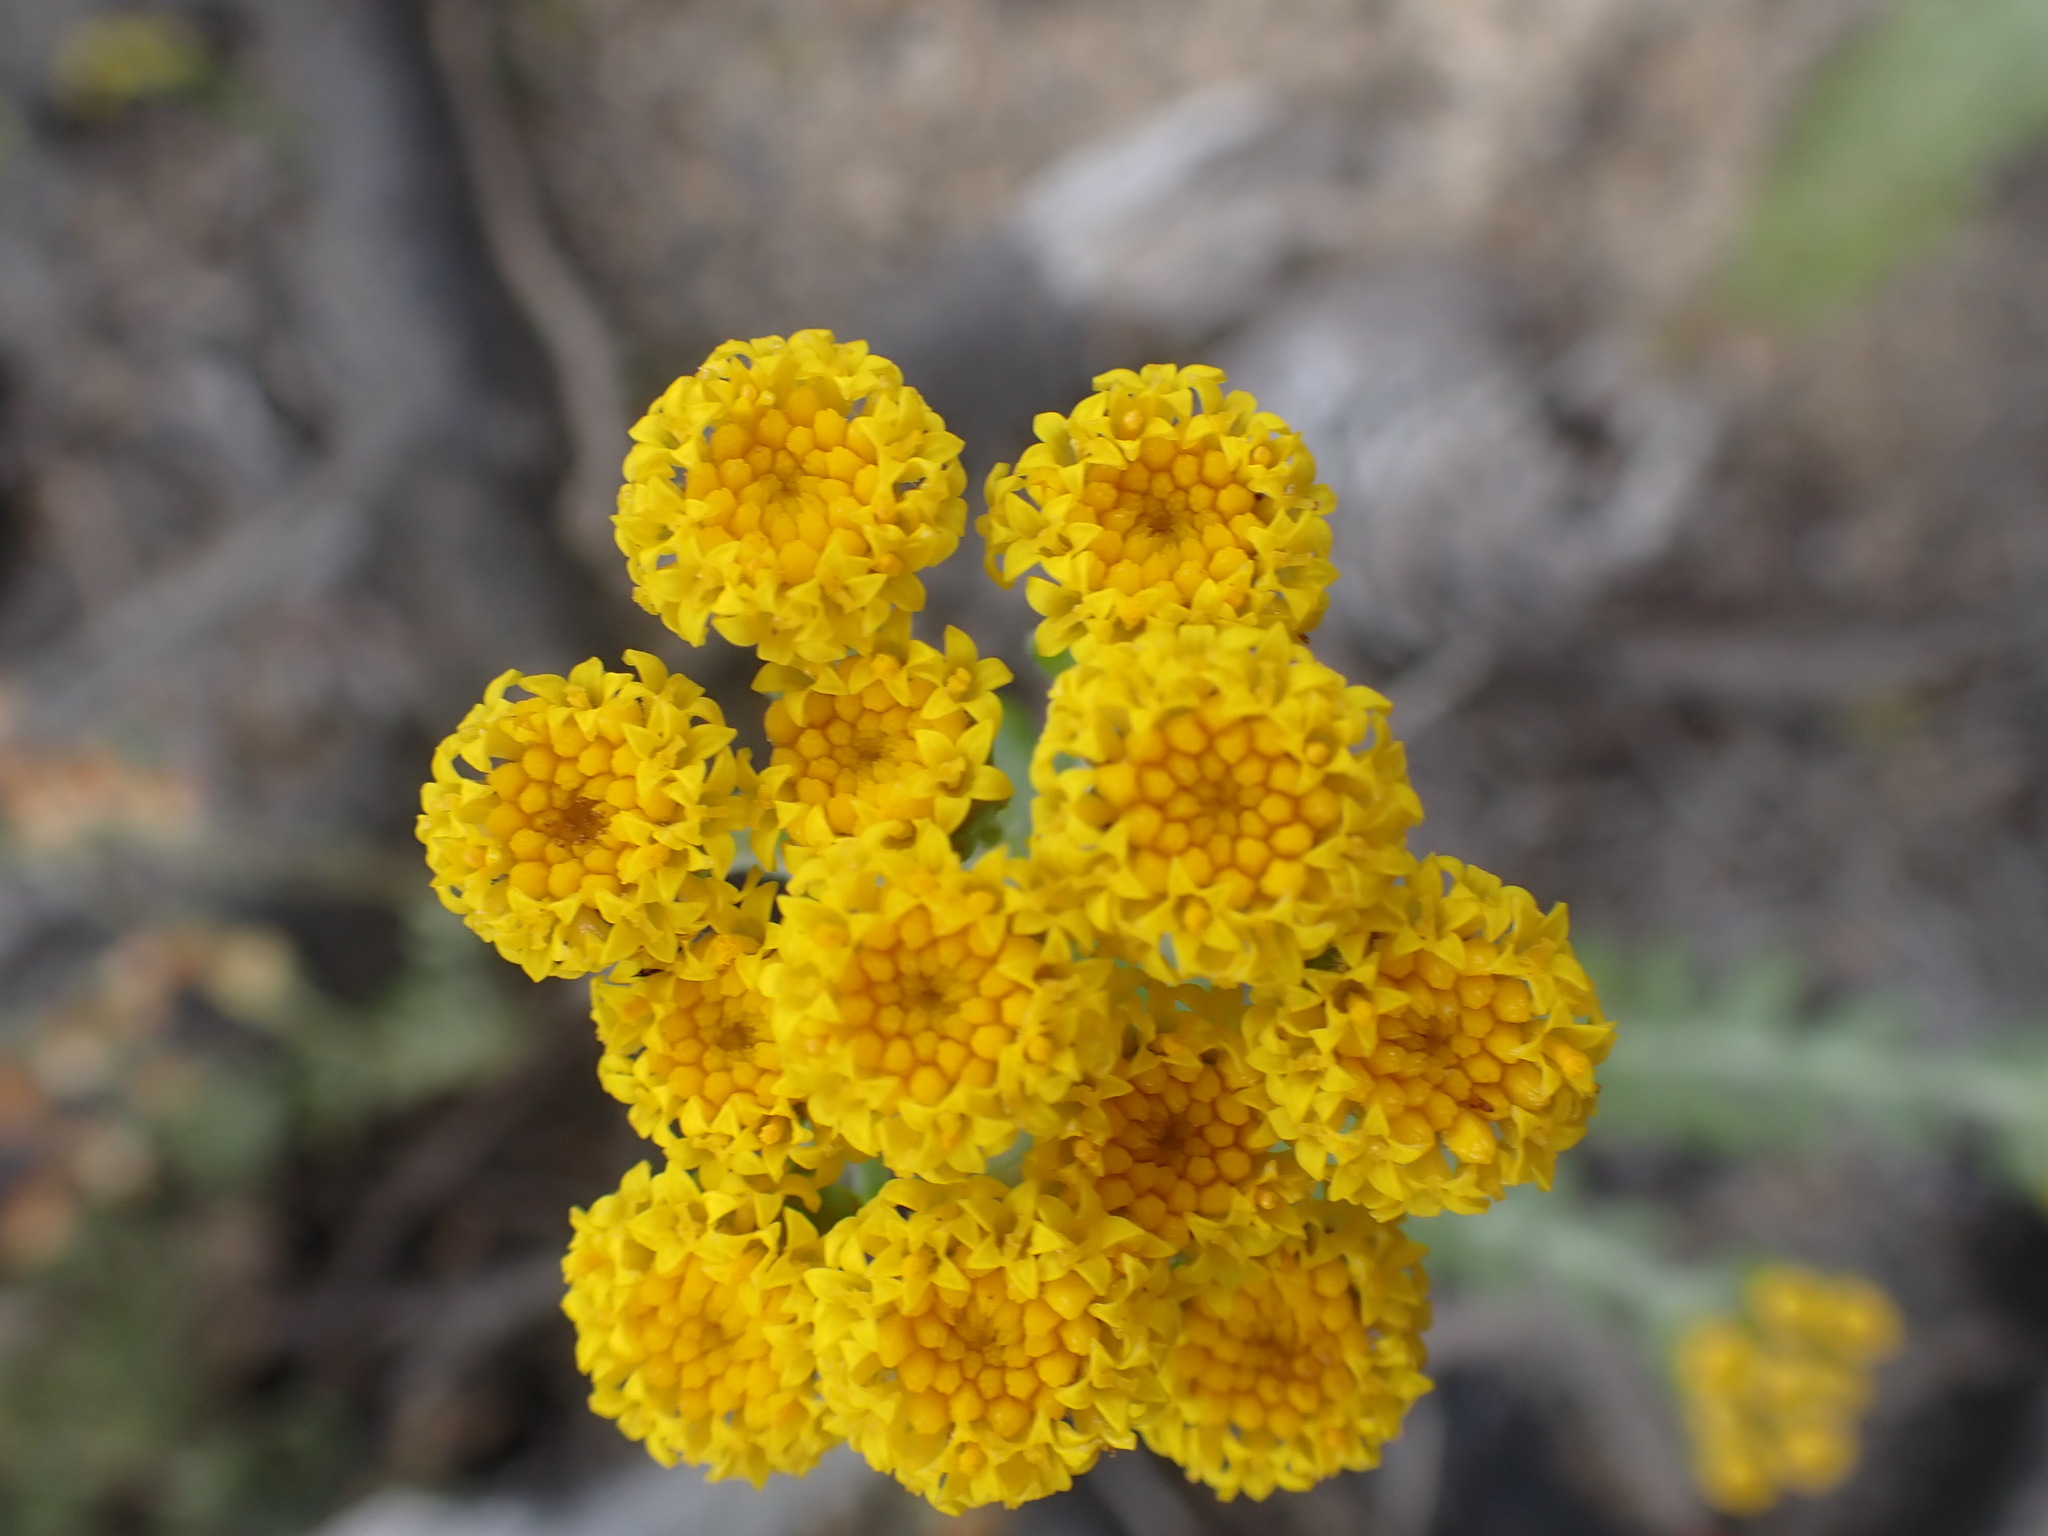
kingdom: Plantae
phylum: Tracheophyta
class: Magnoliopsida
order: Asterales
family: Asteraceae
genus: Athanasia
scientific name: Athanasia trifurcata
